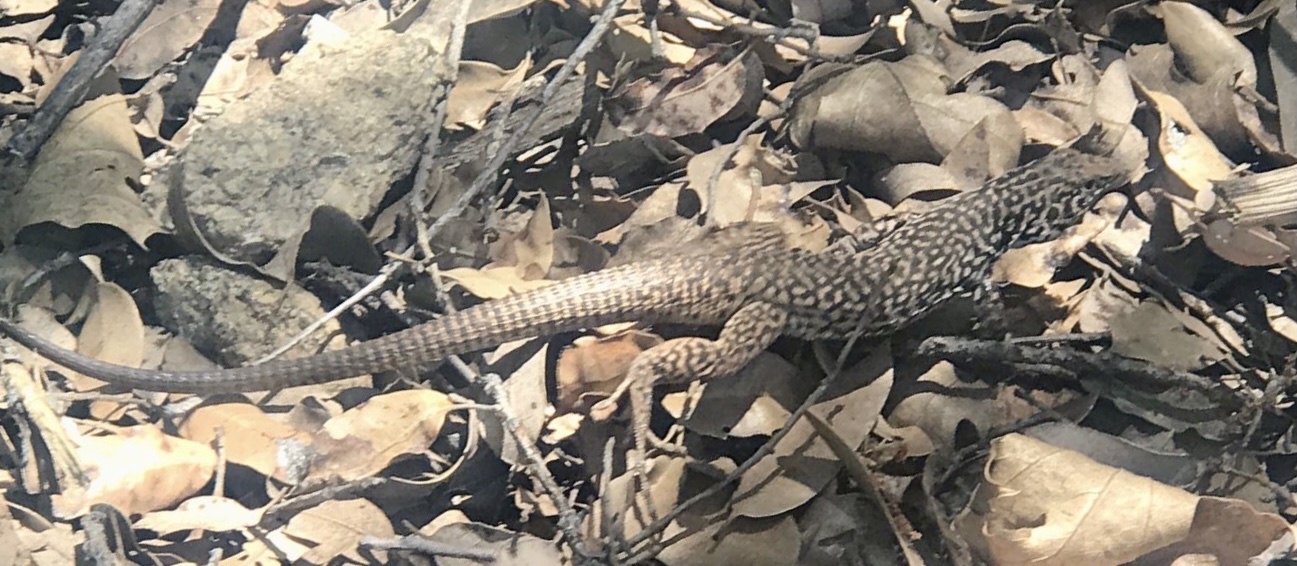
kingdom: Animalia
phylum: Chordata
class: Squamata
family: Teiidae
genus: Aspidoscelis
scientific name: Aspidoscelis tigris
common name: Tiger whiptail
